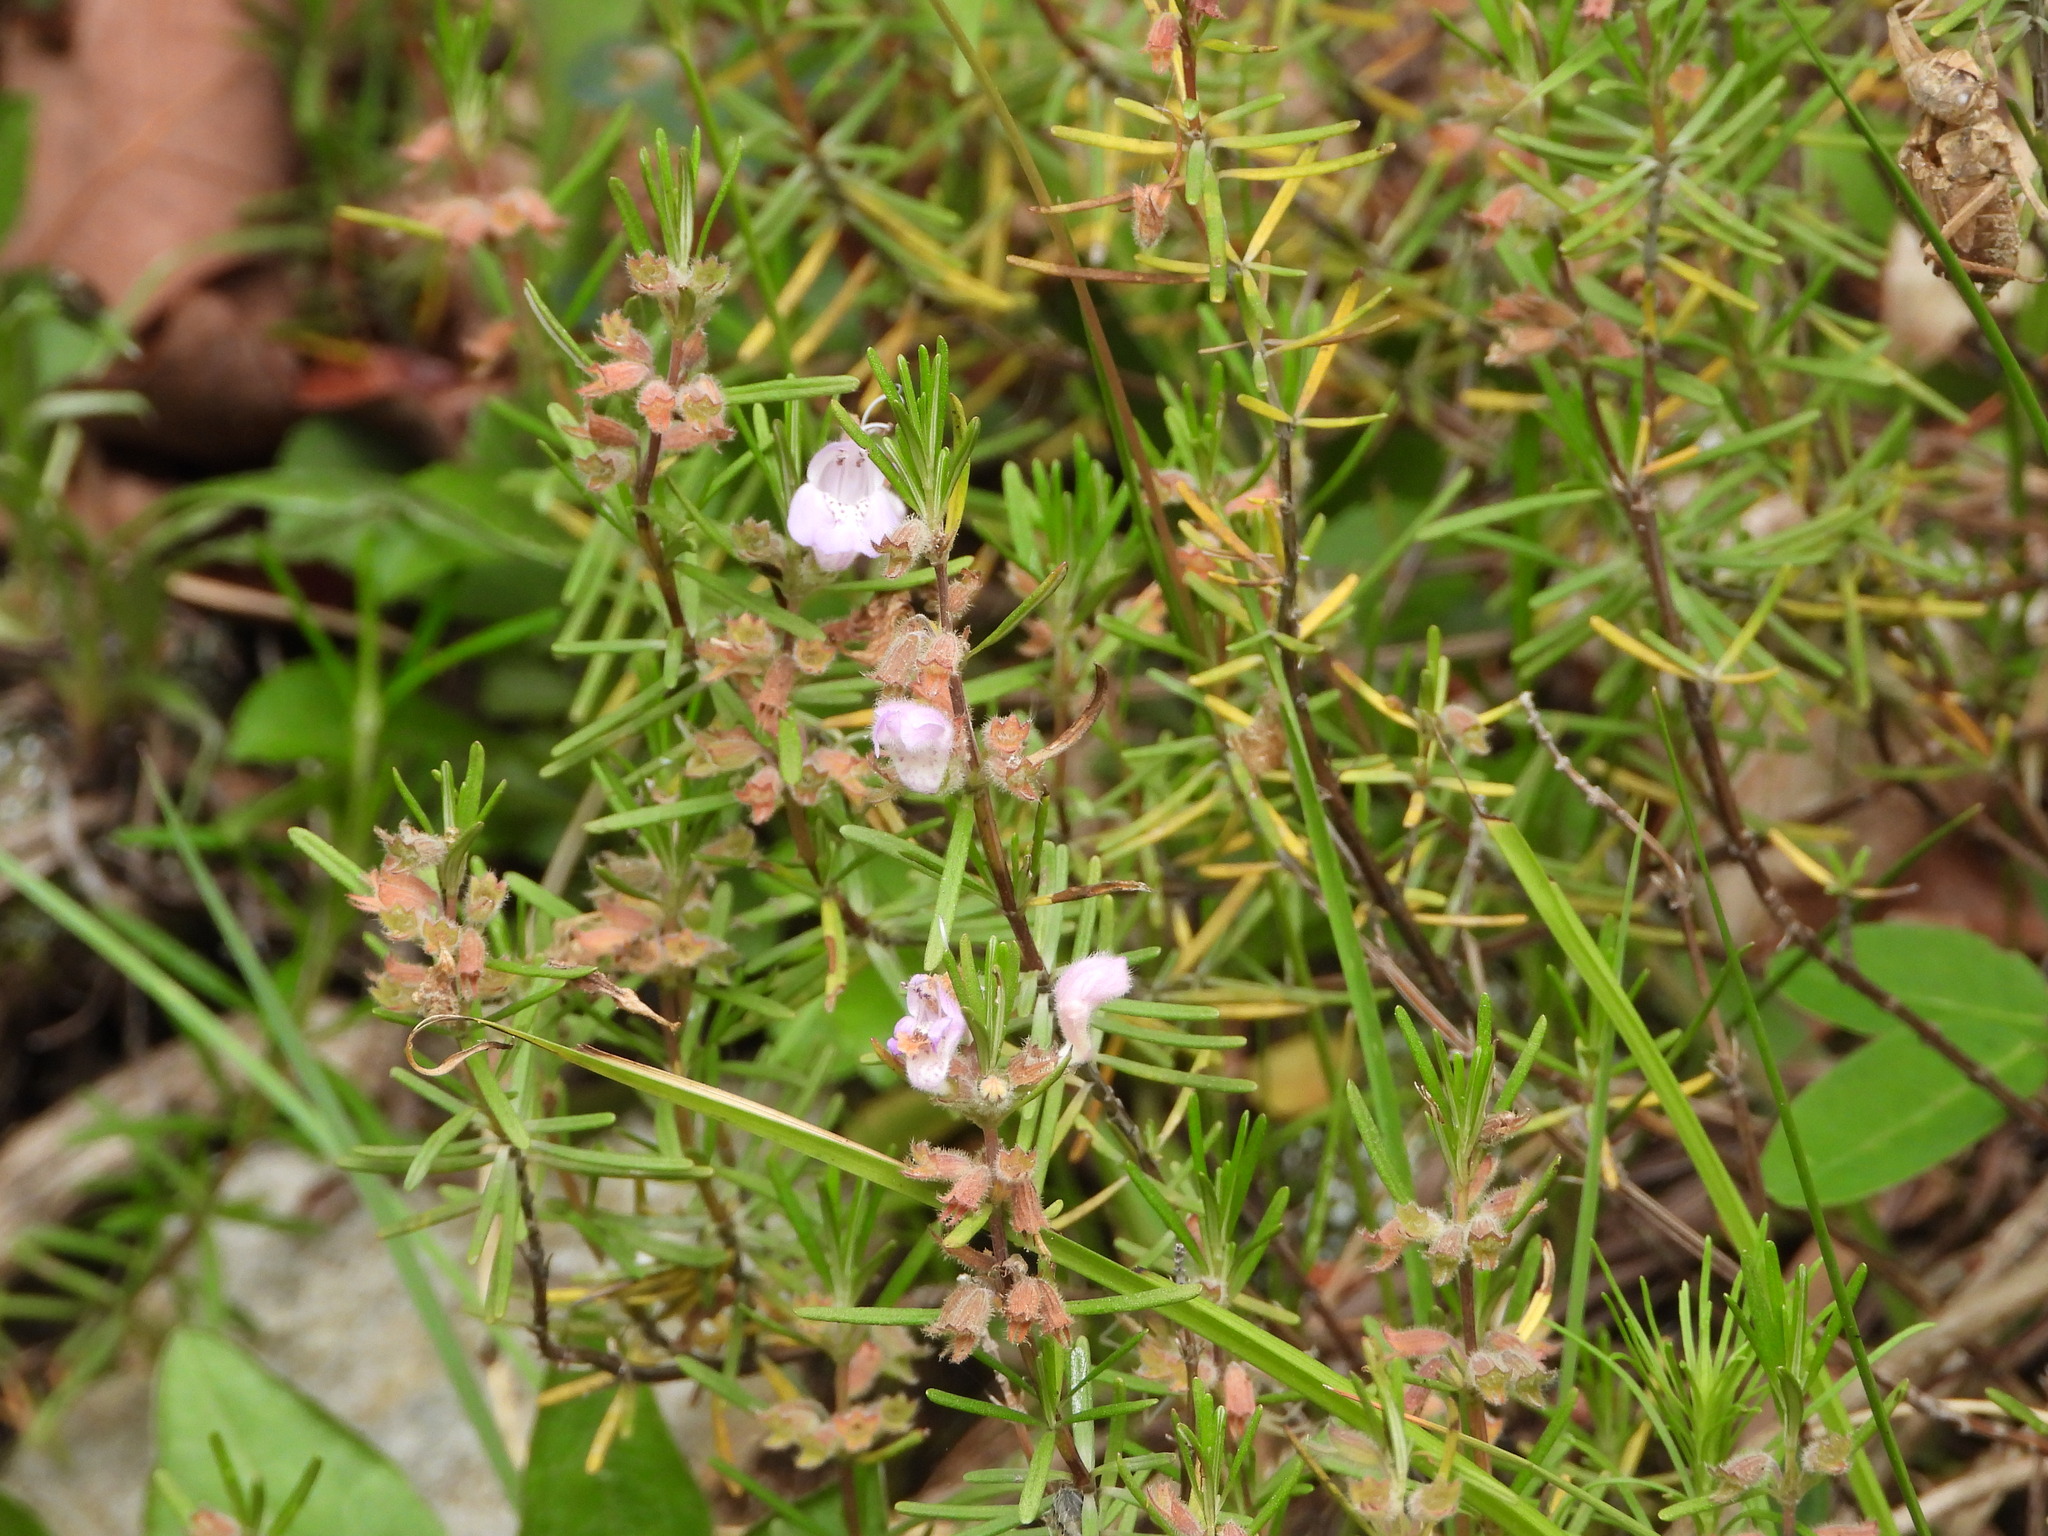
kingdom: Plantae
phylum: Tracheophyta
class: Magnoliopsida
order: Lamiales
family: Lamiaceae
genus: Conradina
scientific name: Conradina verticillata
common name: Cumberland-rosemary
